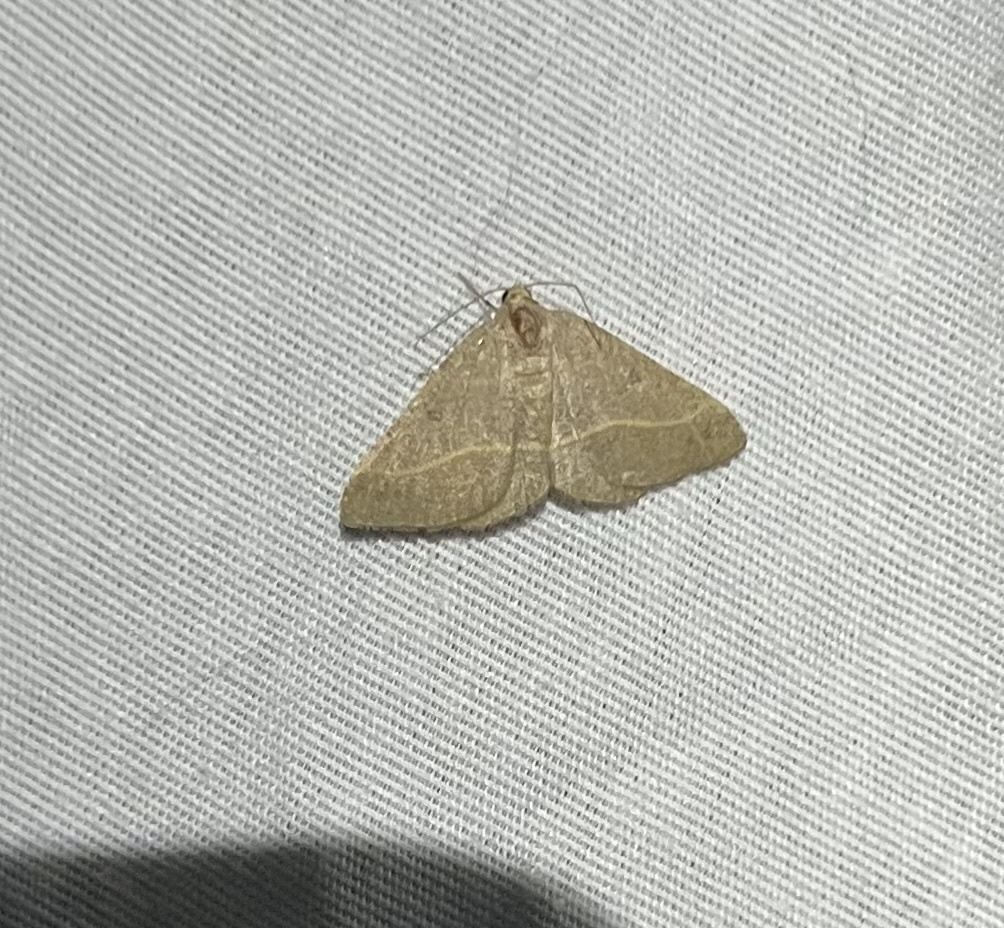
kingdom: Animalia
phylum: Arthropoda
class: Insecta
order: Lepidoptera
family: Geometridae
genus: Digrammia
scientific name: Digrammia irrorata
